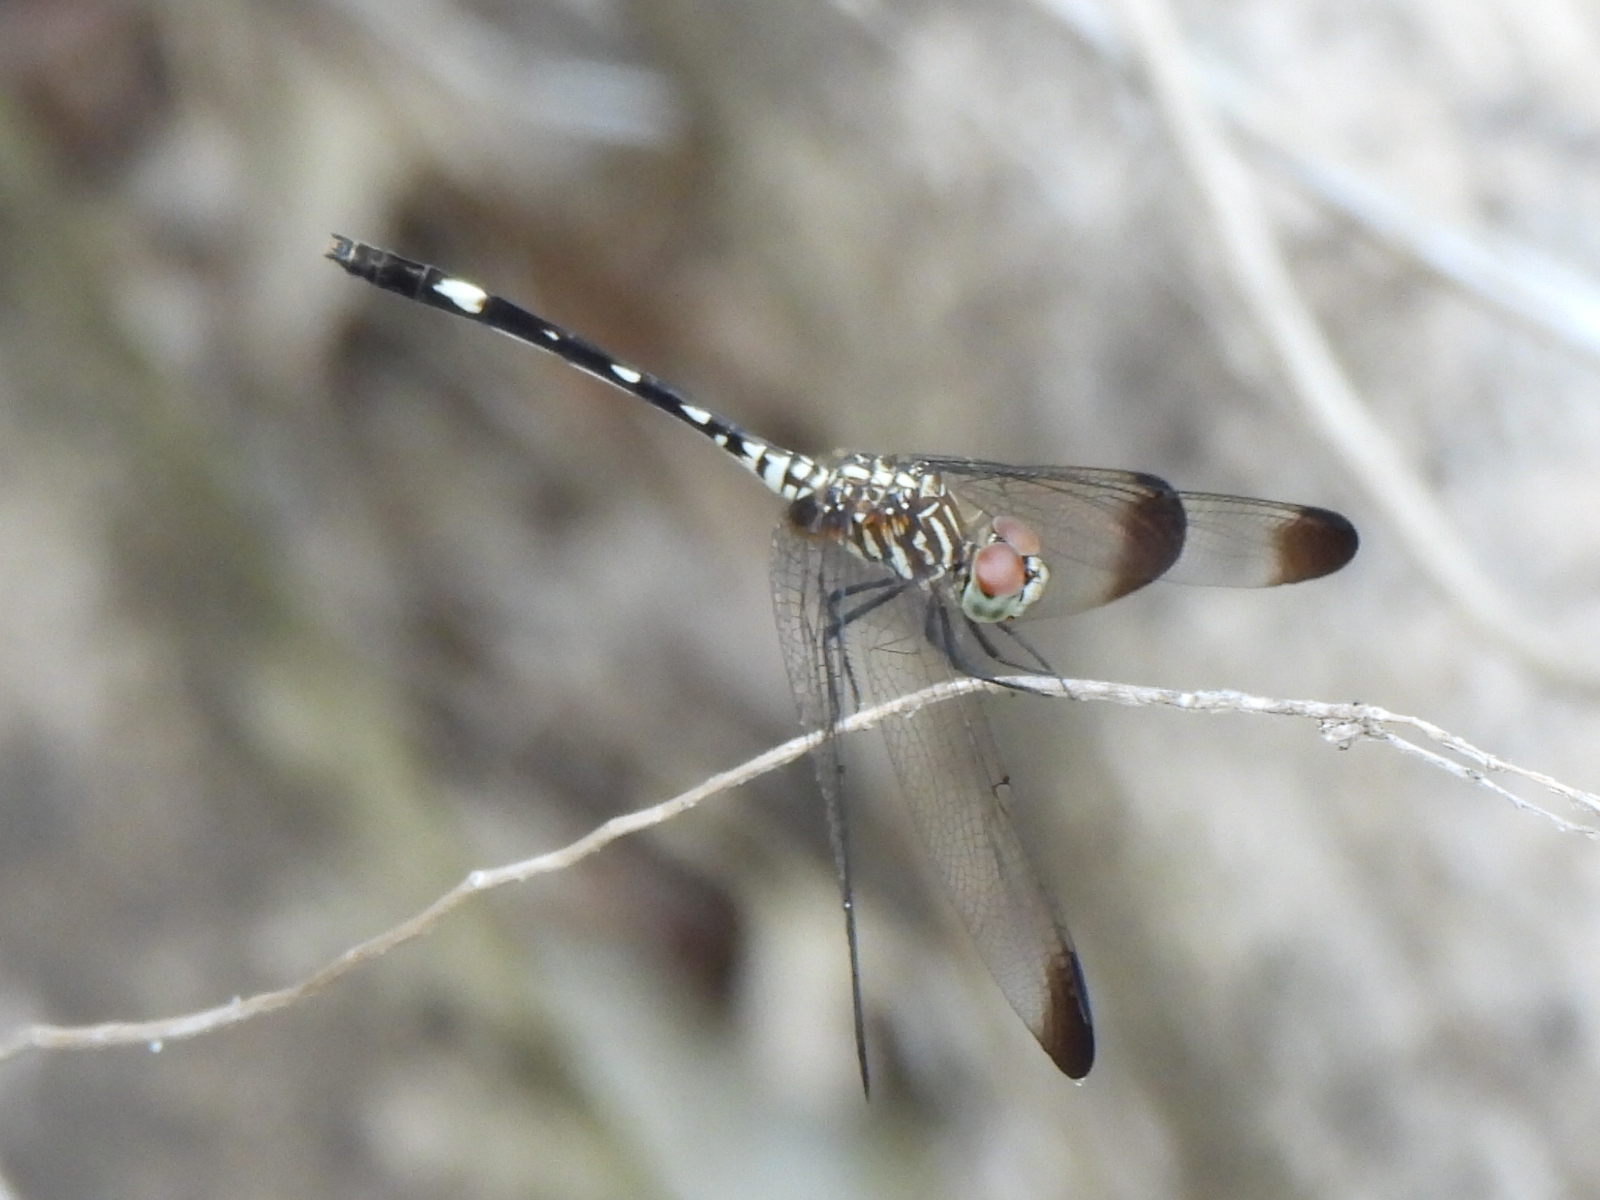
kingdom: Animalia
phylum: Arthropoda
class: Insecta
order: Odonata
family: Libellulidae
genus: Dythemis
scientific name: Dythemis velox
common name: Swift setwing
